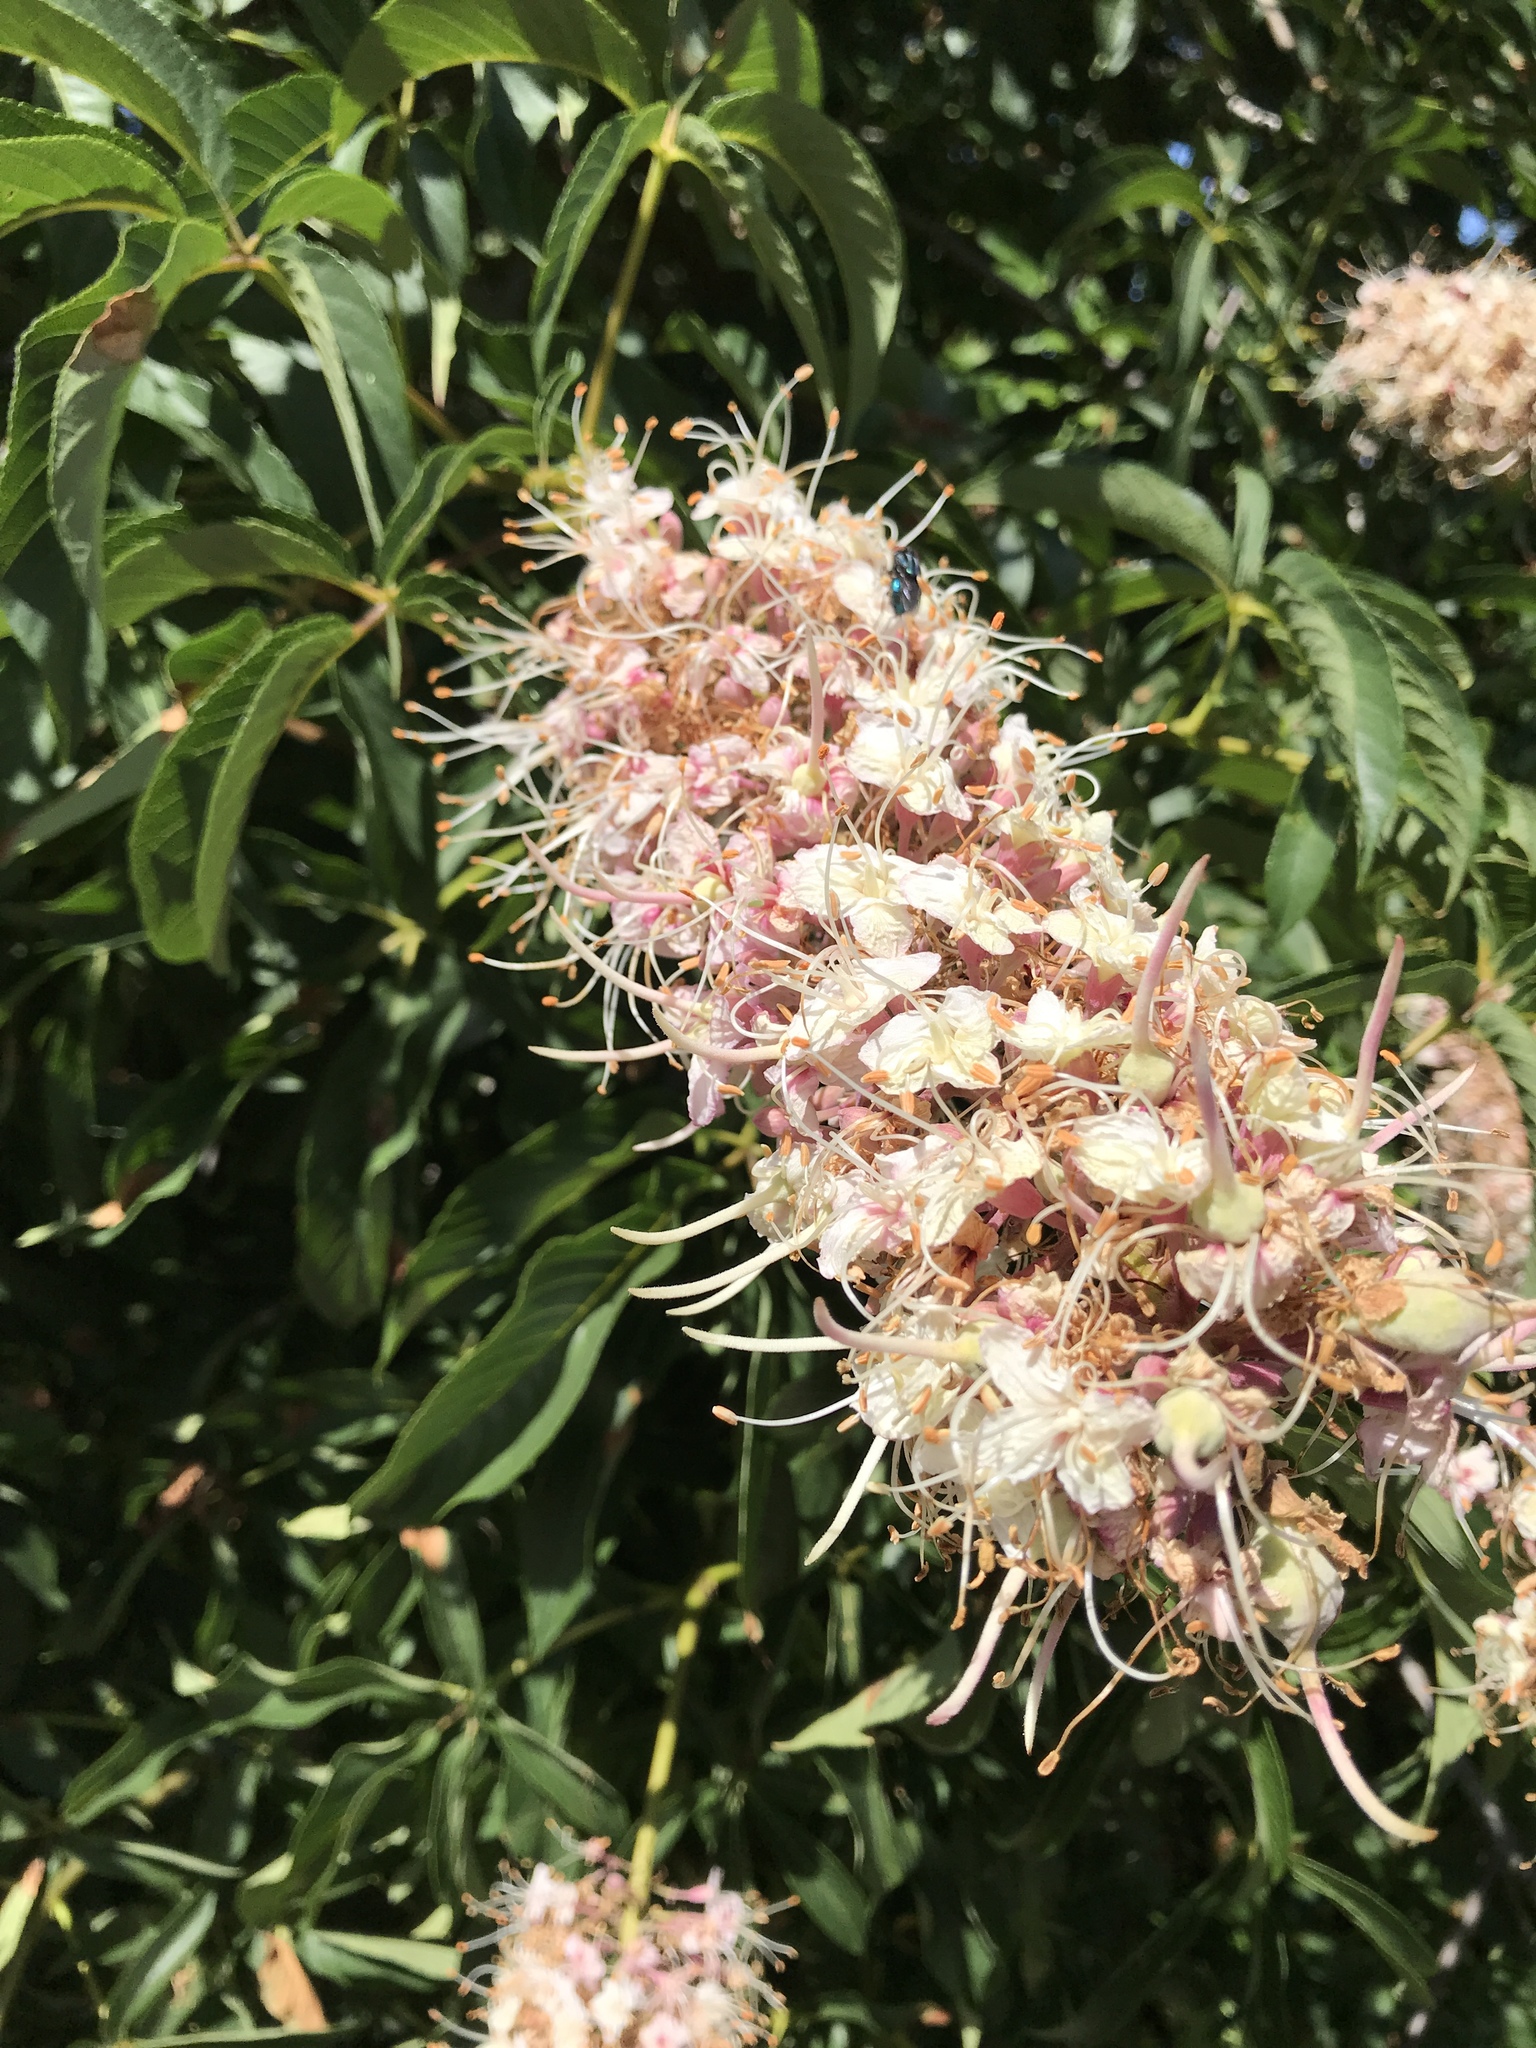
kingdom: Plantae
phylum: Tracheophyta
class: Magnoliopsida
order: Sapindales
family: Sapindaceae
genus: Aesculus
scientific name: Aesculus californica
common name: California buckeye
